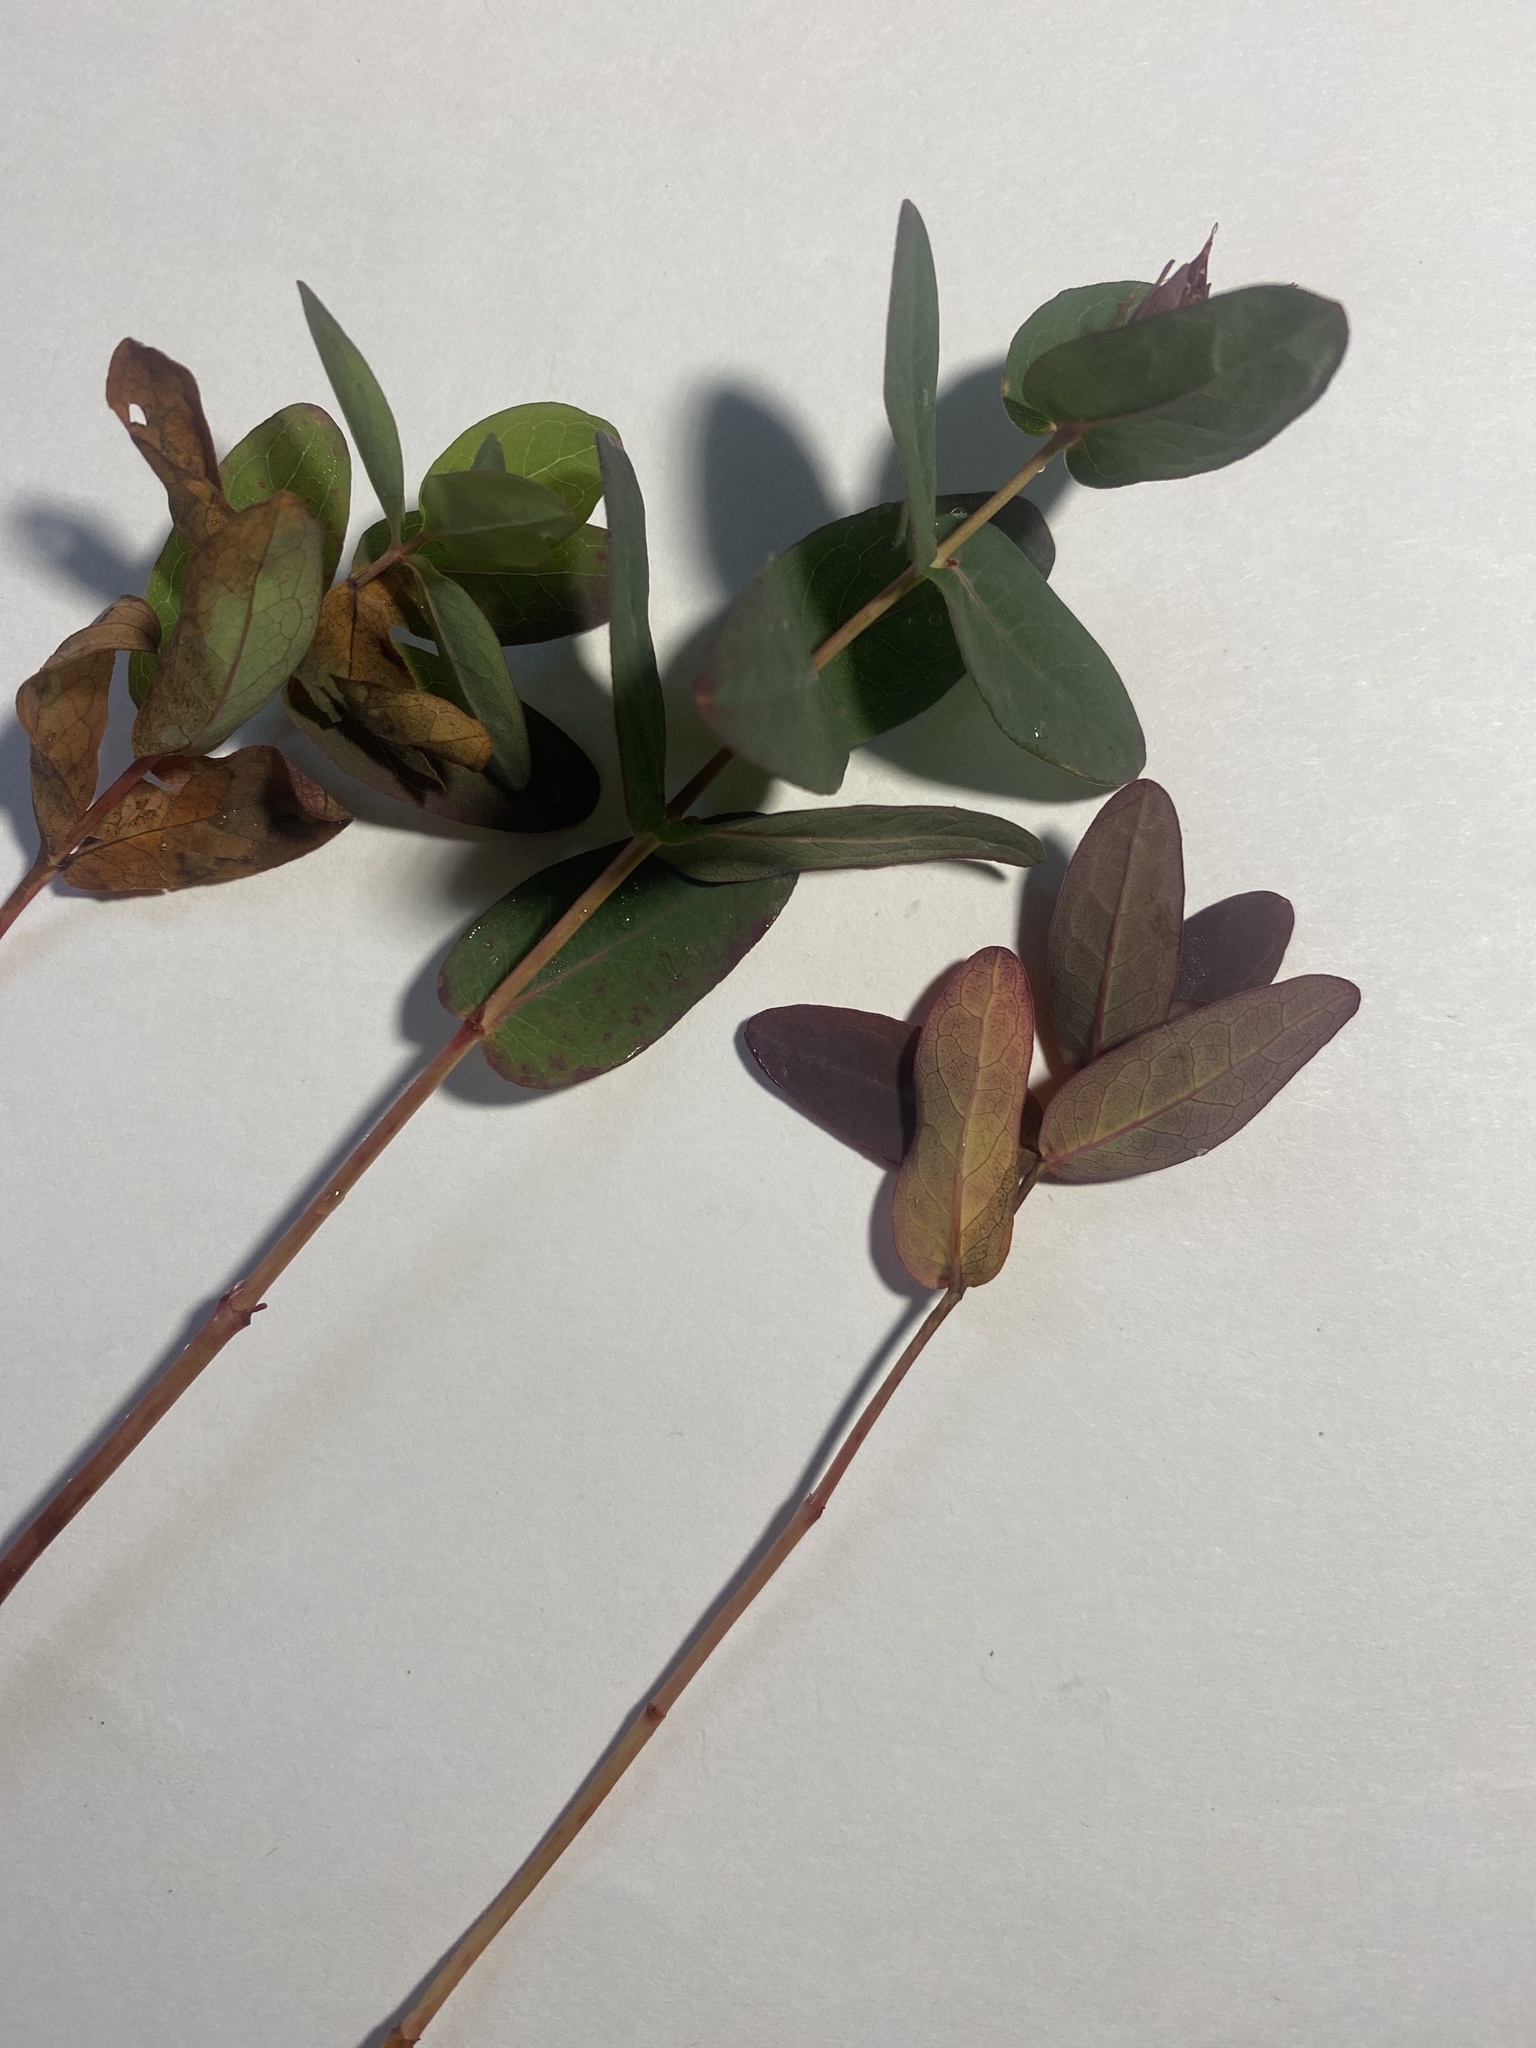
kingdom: Plantae
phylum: Tracheophyta
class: Magnoliopsida
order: Malpighiales
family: Hypericaceae
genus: Triadenum
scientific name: Triadenum virginicum
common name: Marsh st. john's-wort
